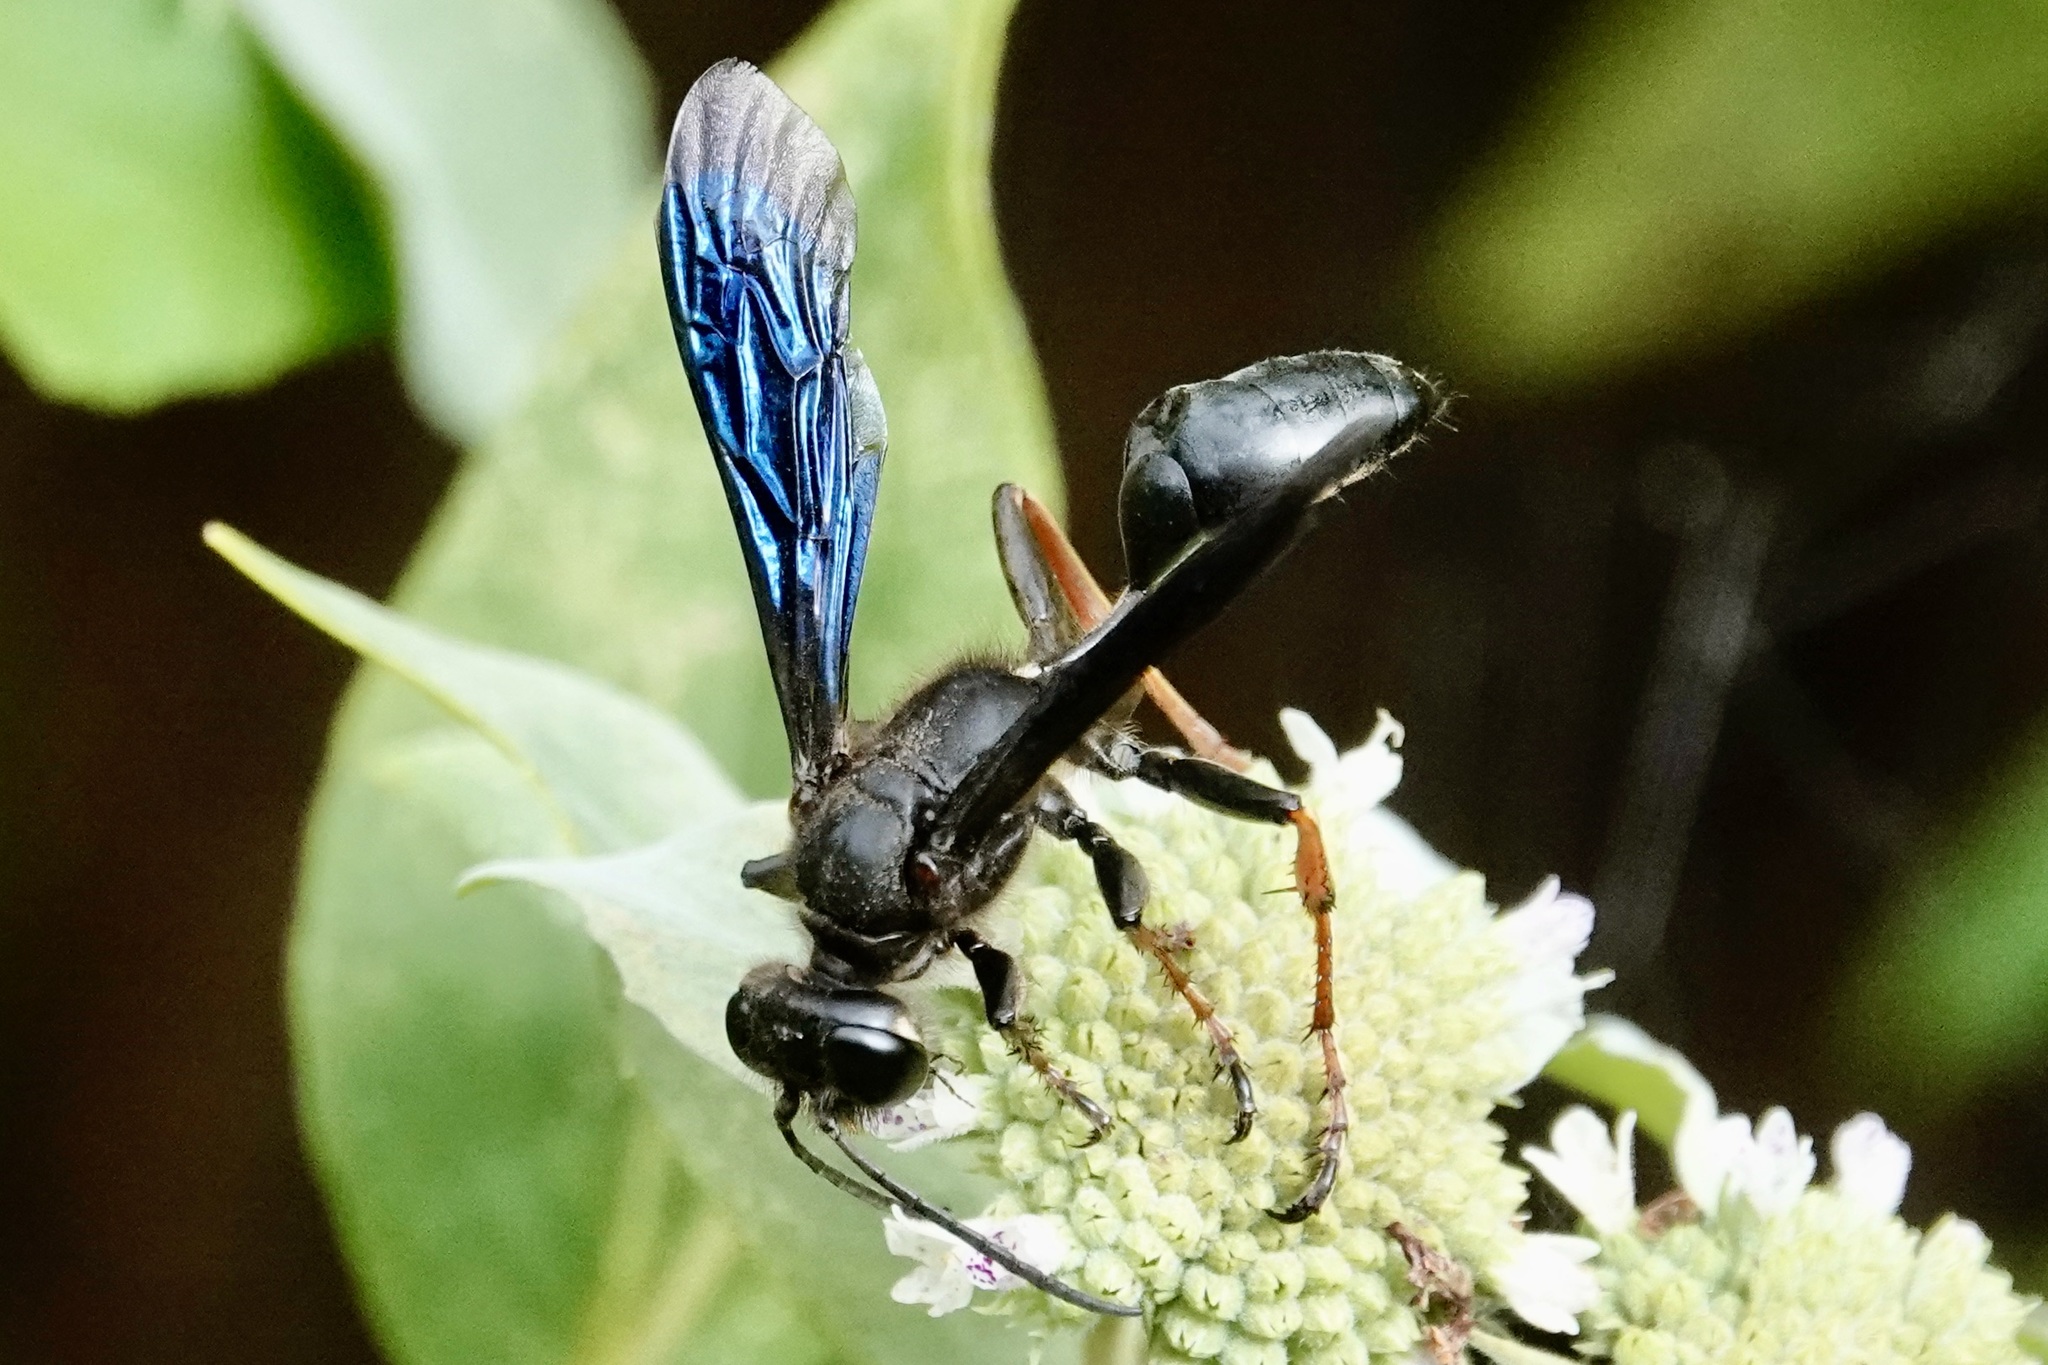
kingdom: Animalia
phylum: Arthropoda
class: Insecta
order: Hymenoptera
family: Sphecidae
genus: Isodontia
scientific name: Isodontia auripes
